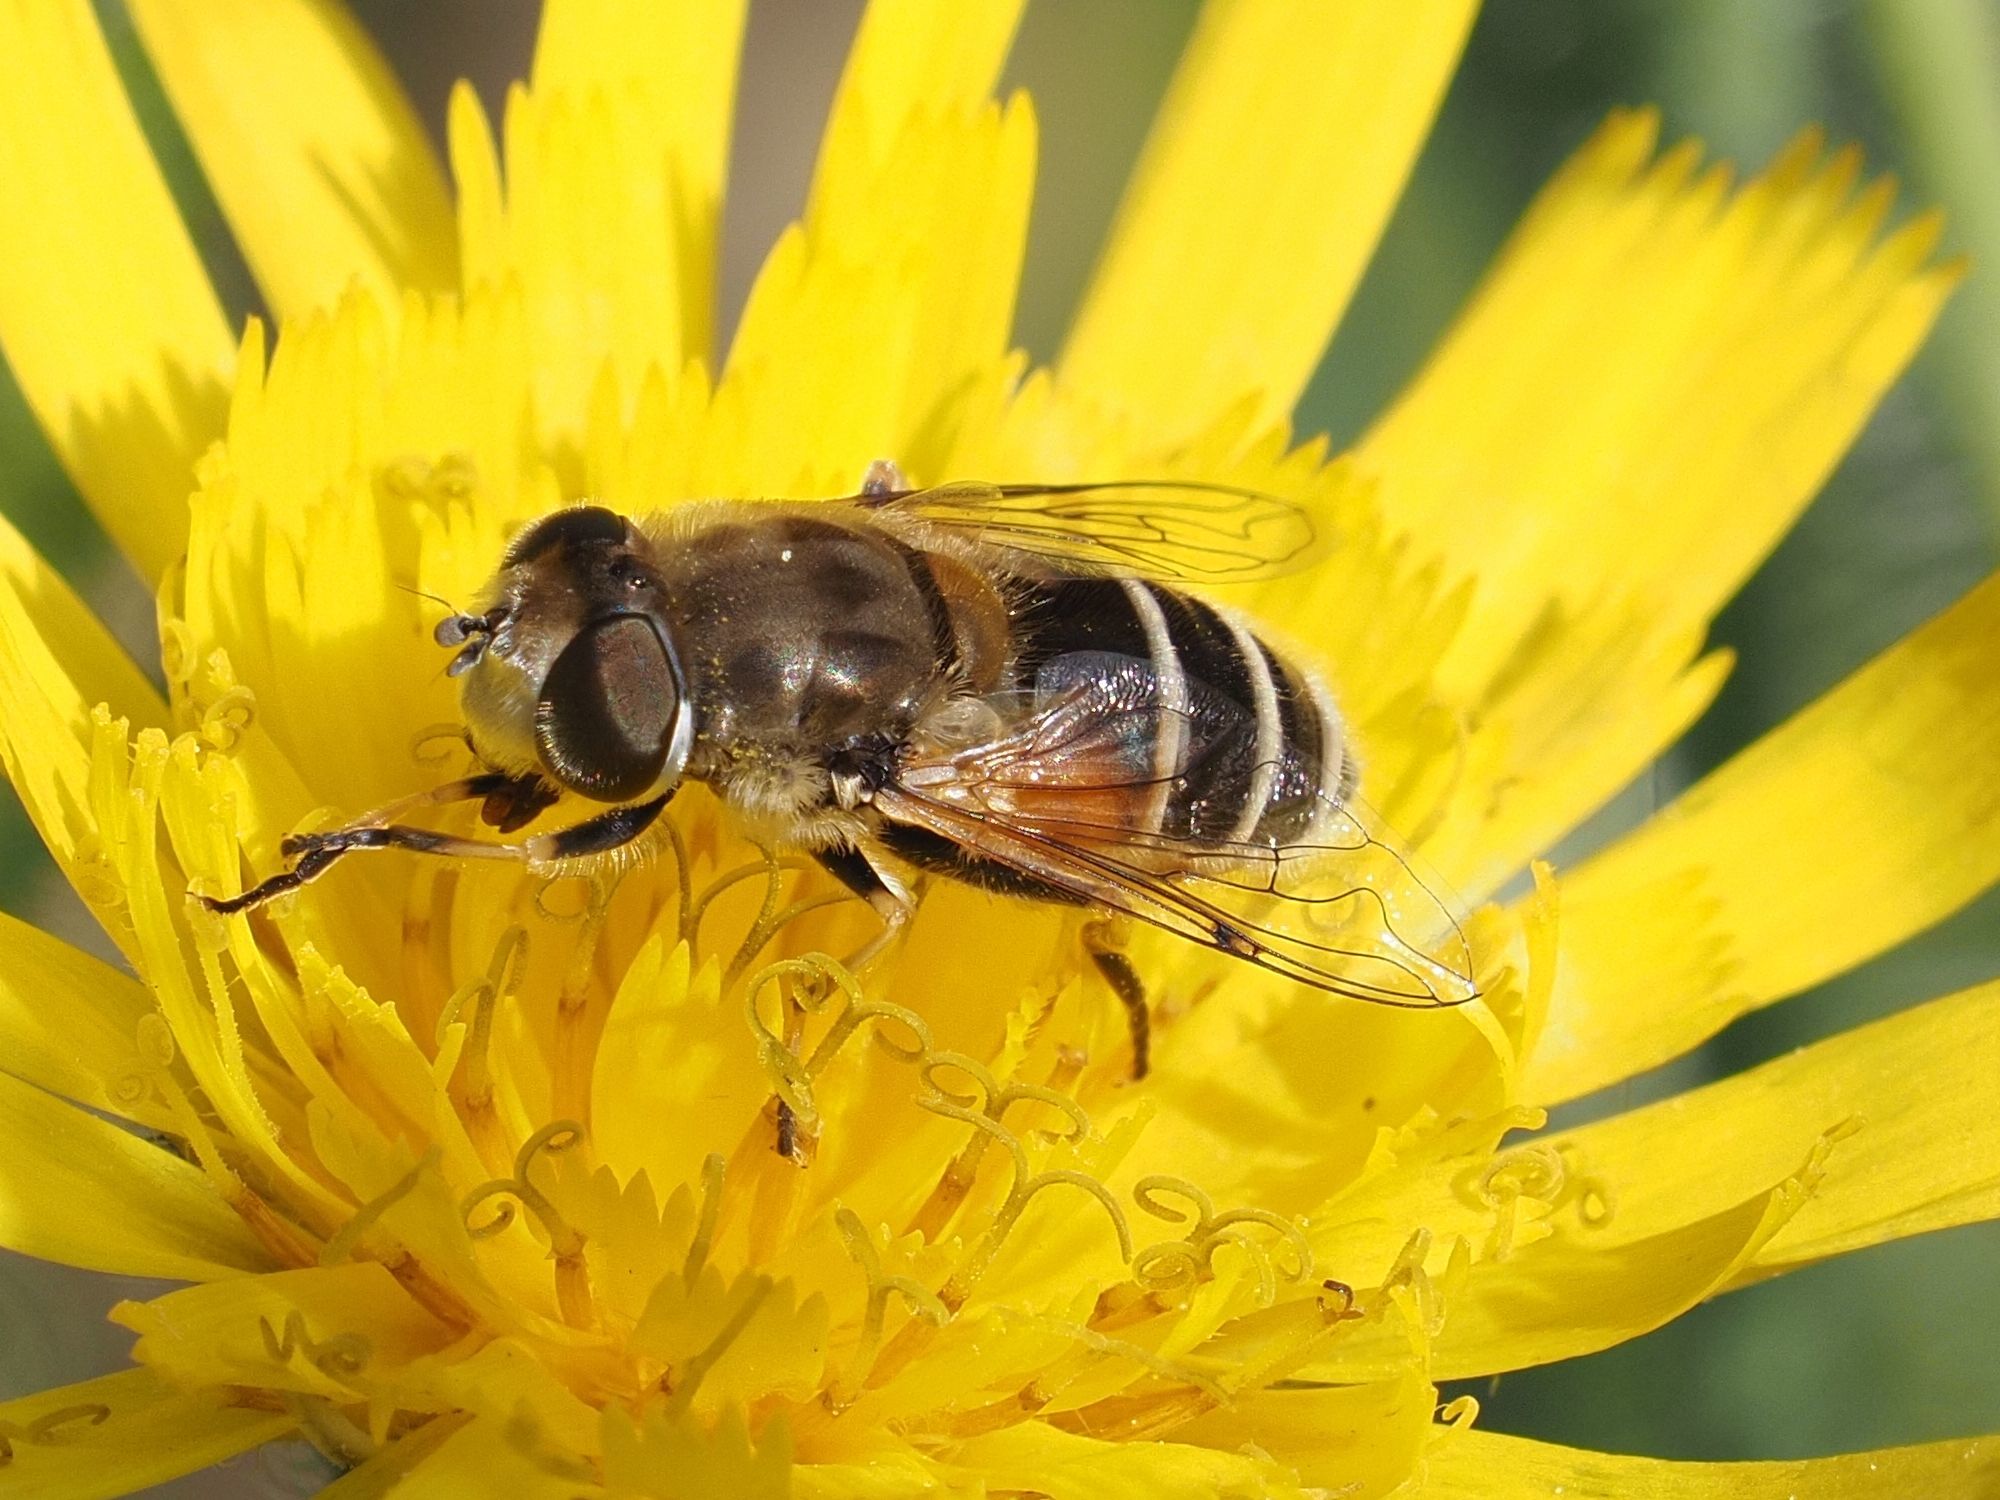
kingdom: Animalia
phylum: Arthropoda
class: Insecta
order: Diptera
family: Syrphidae
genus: Eristalis
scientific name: Eristalis arbustorum
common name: Hover fly
